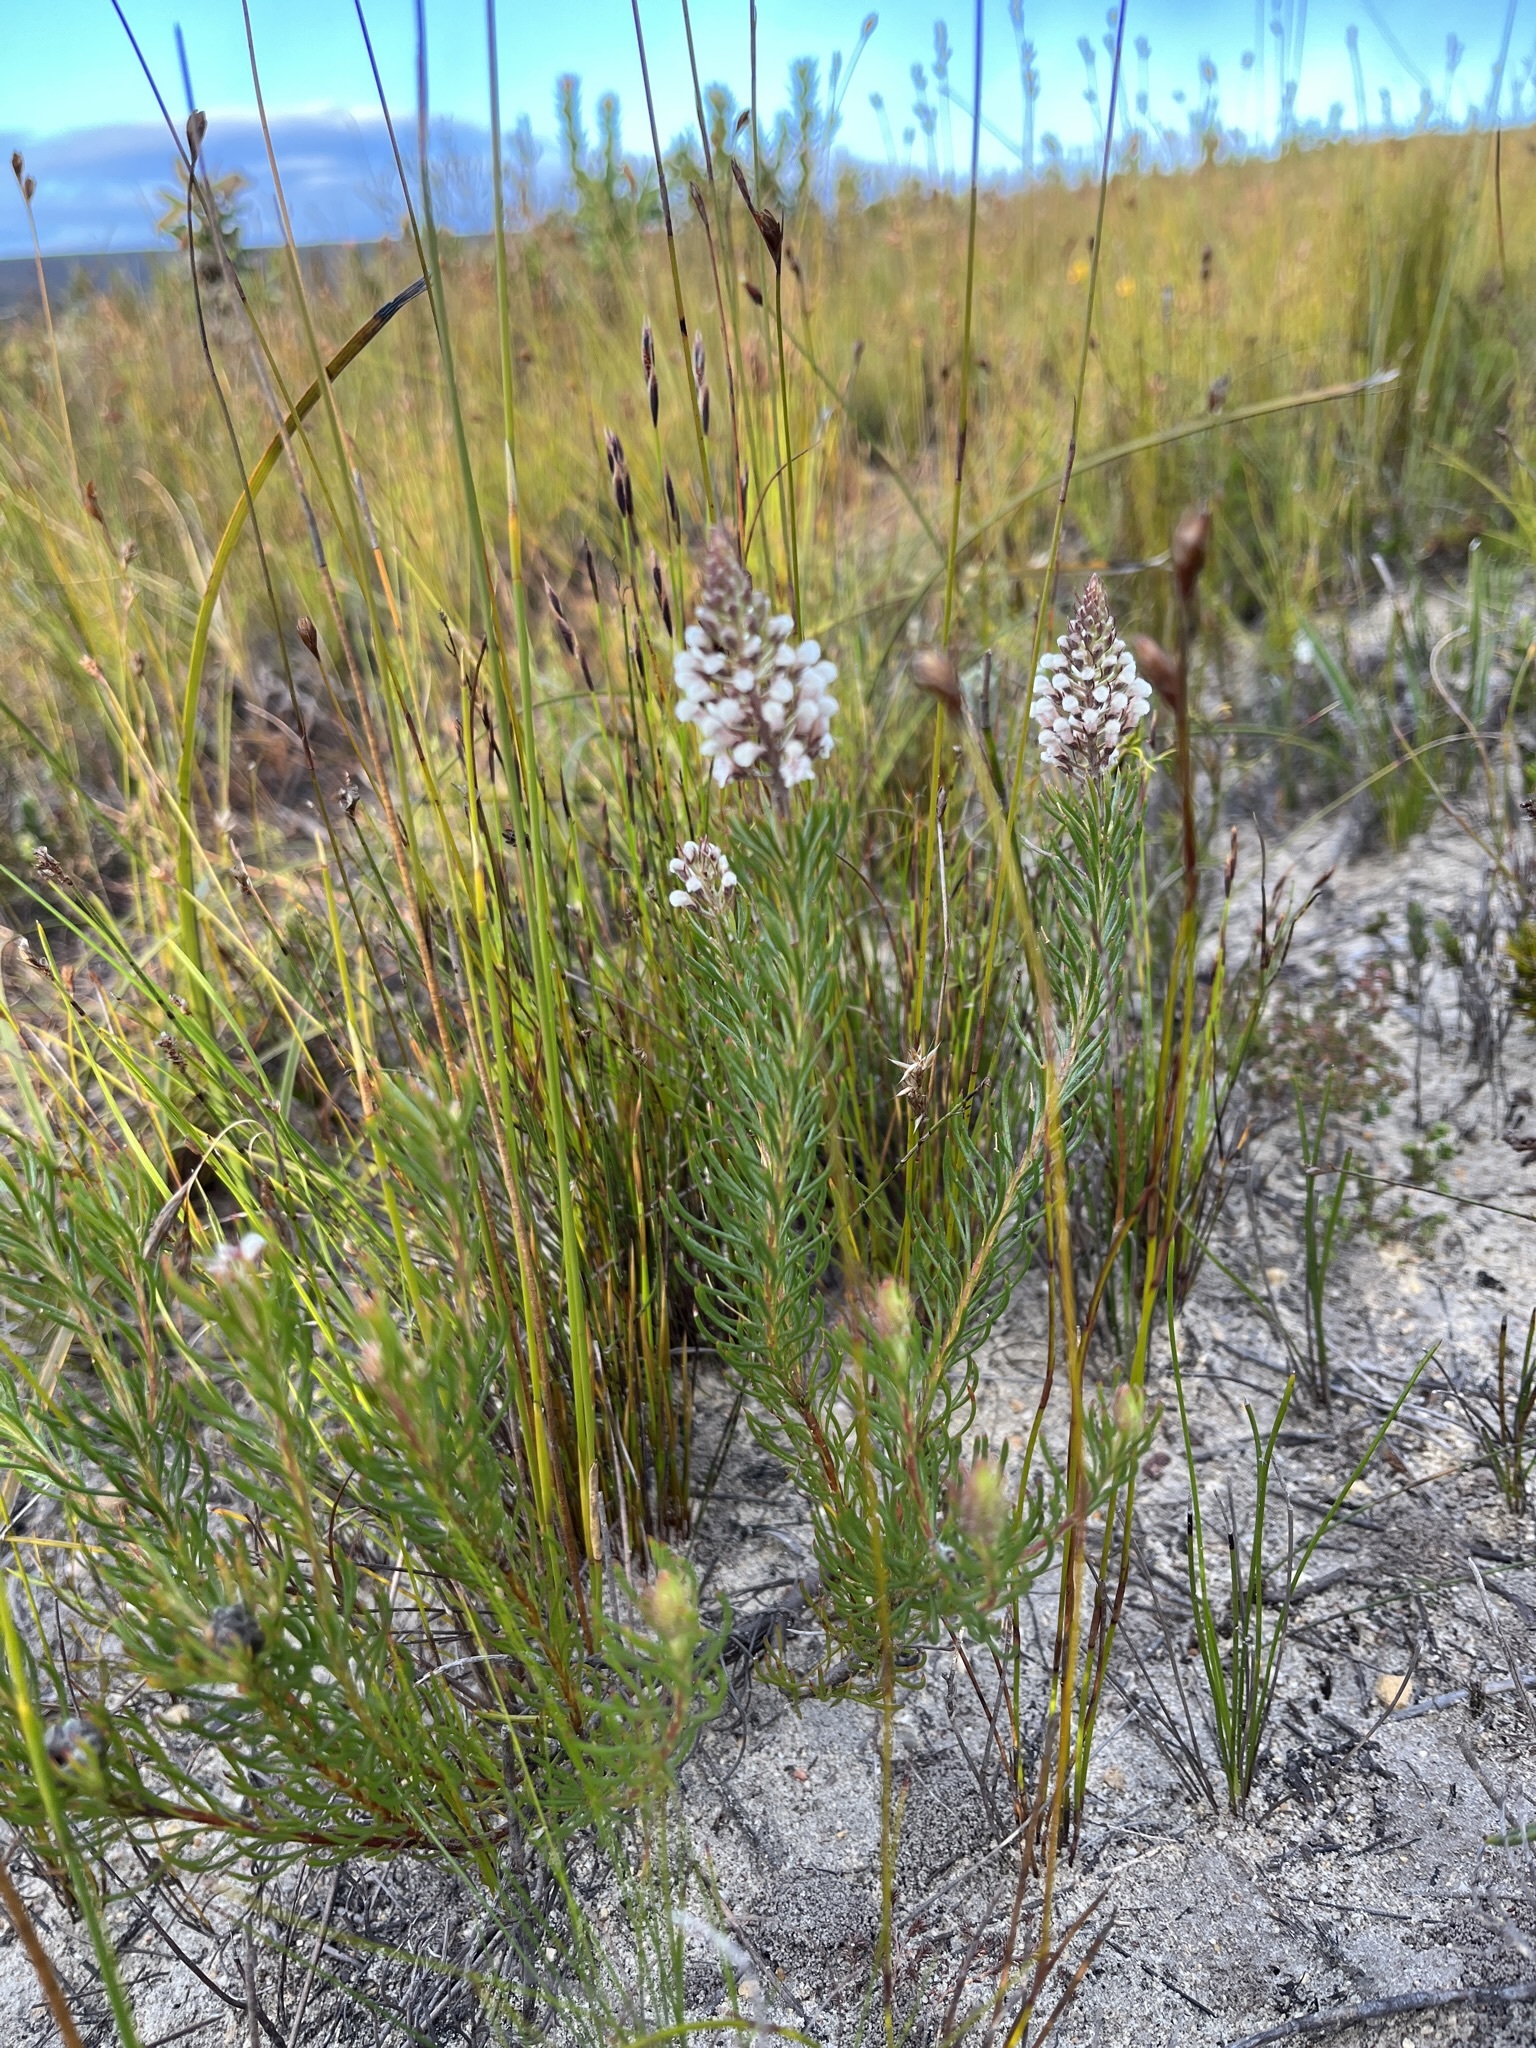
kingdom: Plantae
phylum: Tracheophyta
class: Magnoliopsida
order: Proteales
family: Proteaceae
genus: Spatalla
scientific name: Spatalla curvifolia
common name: White-stalked spoon
